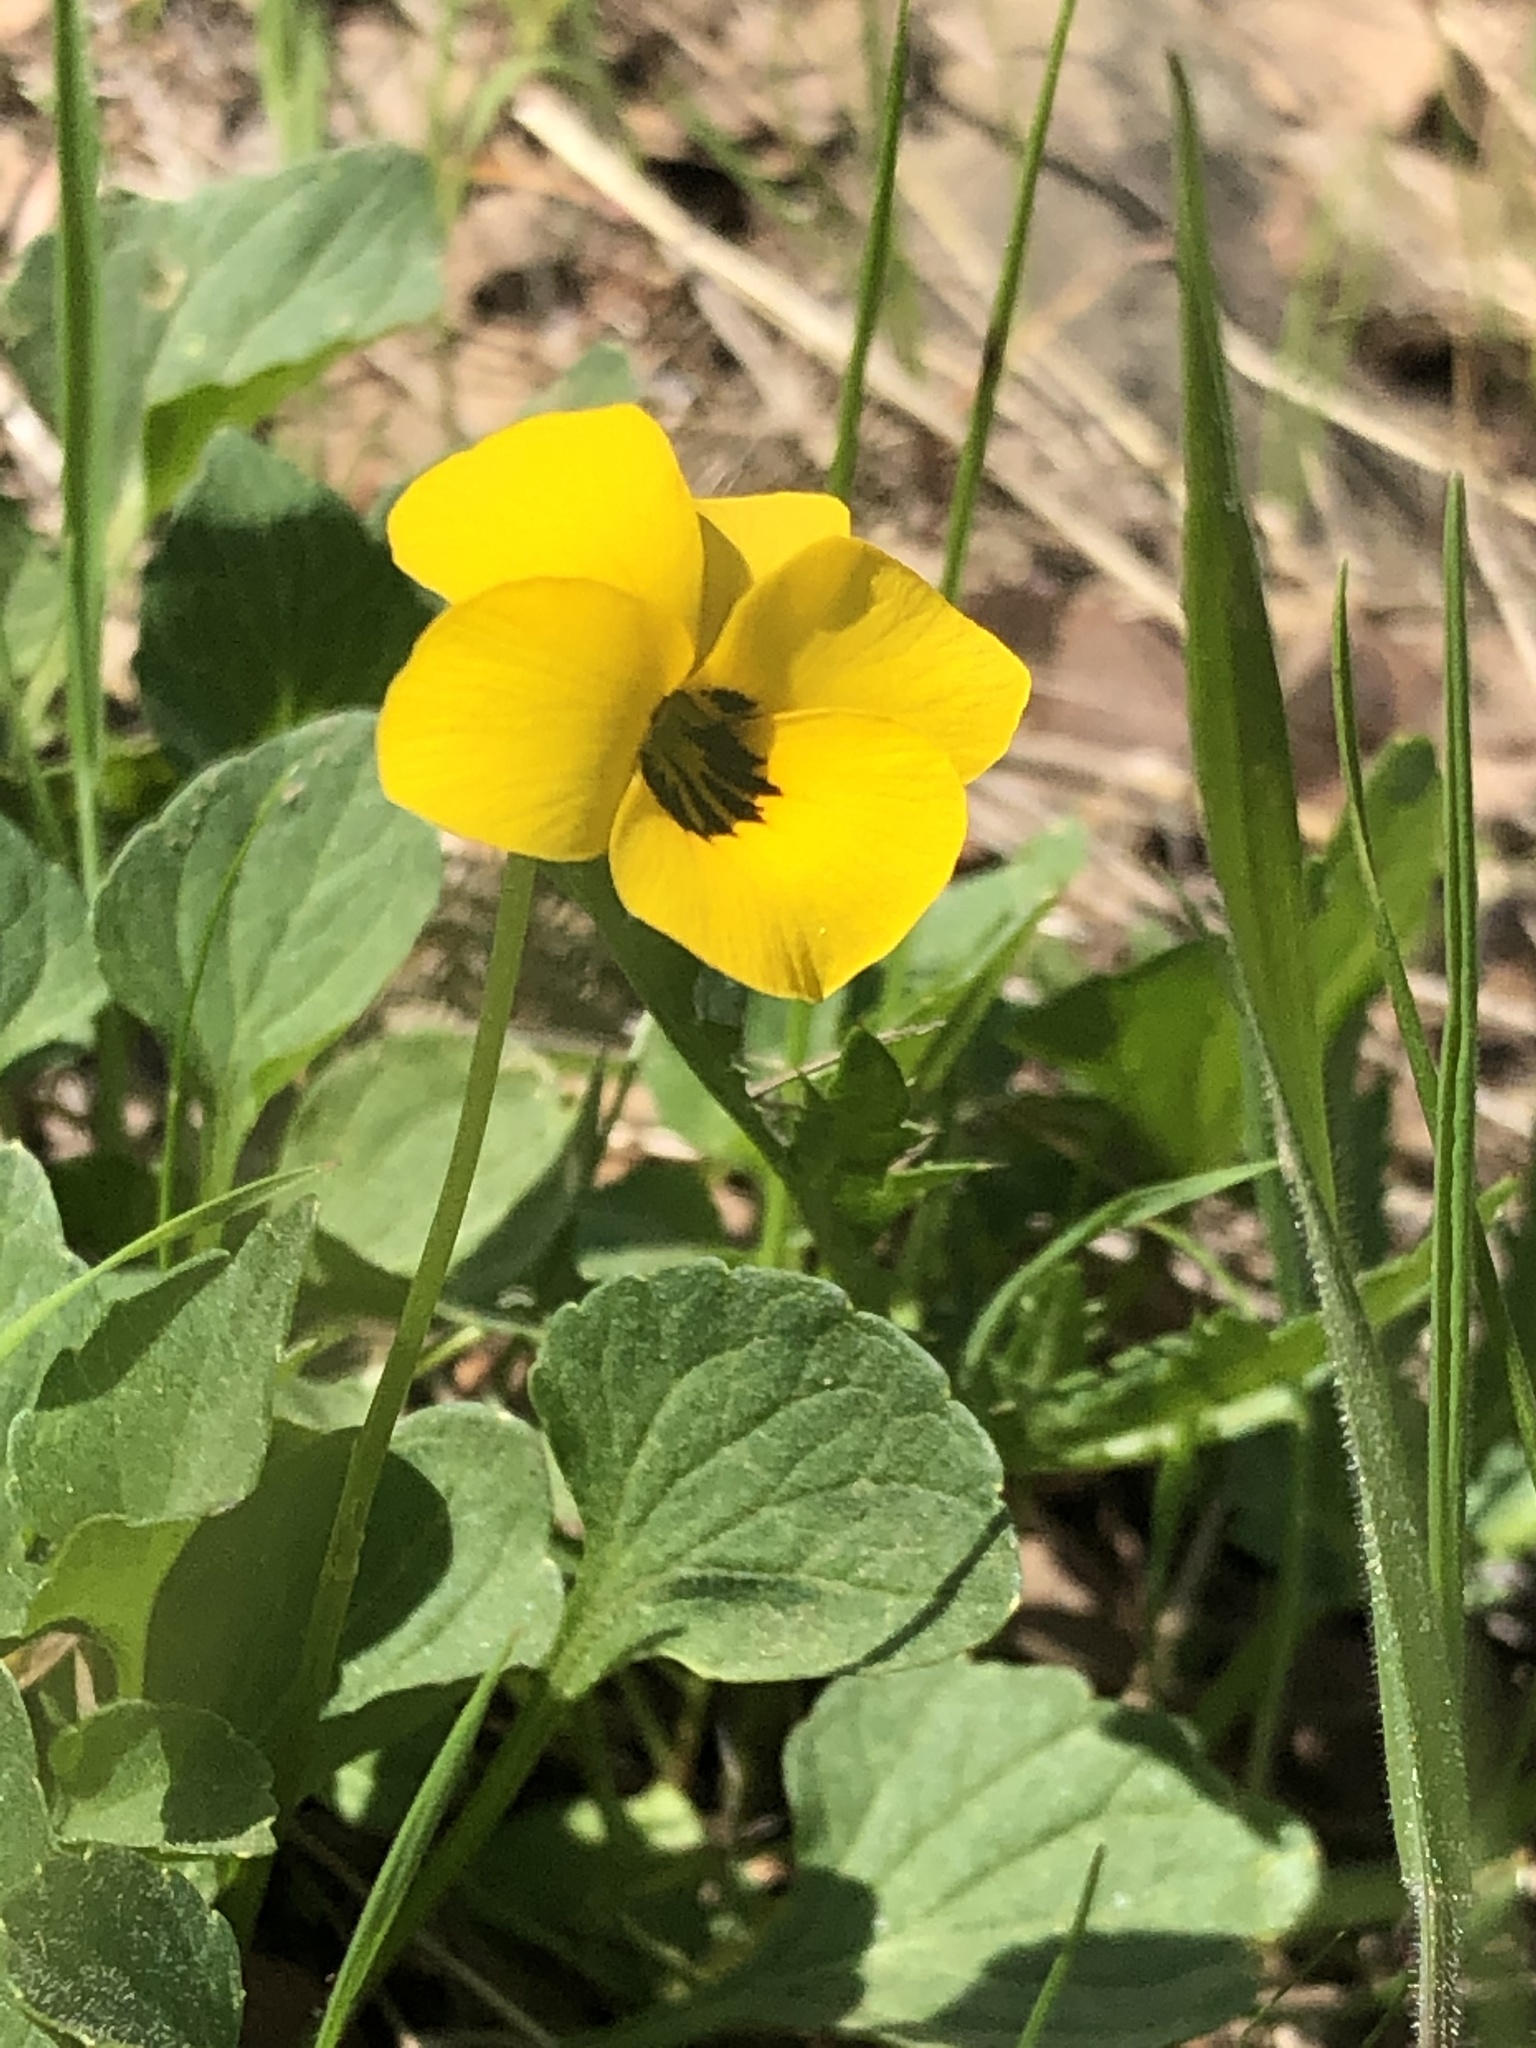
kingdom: Plantae
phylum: Tracheophyta
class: Magnoliopsida
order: Malpighiales
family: Violaceae
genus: Viola
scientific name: Viola pedunculata
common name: California golden violet
